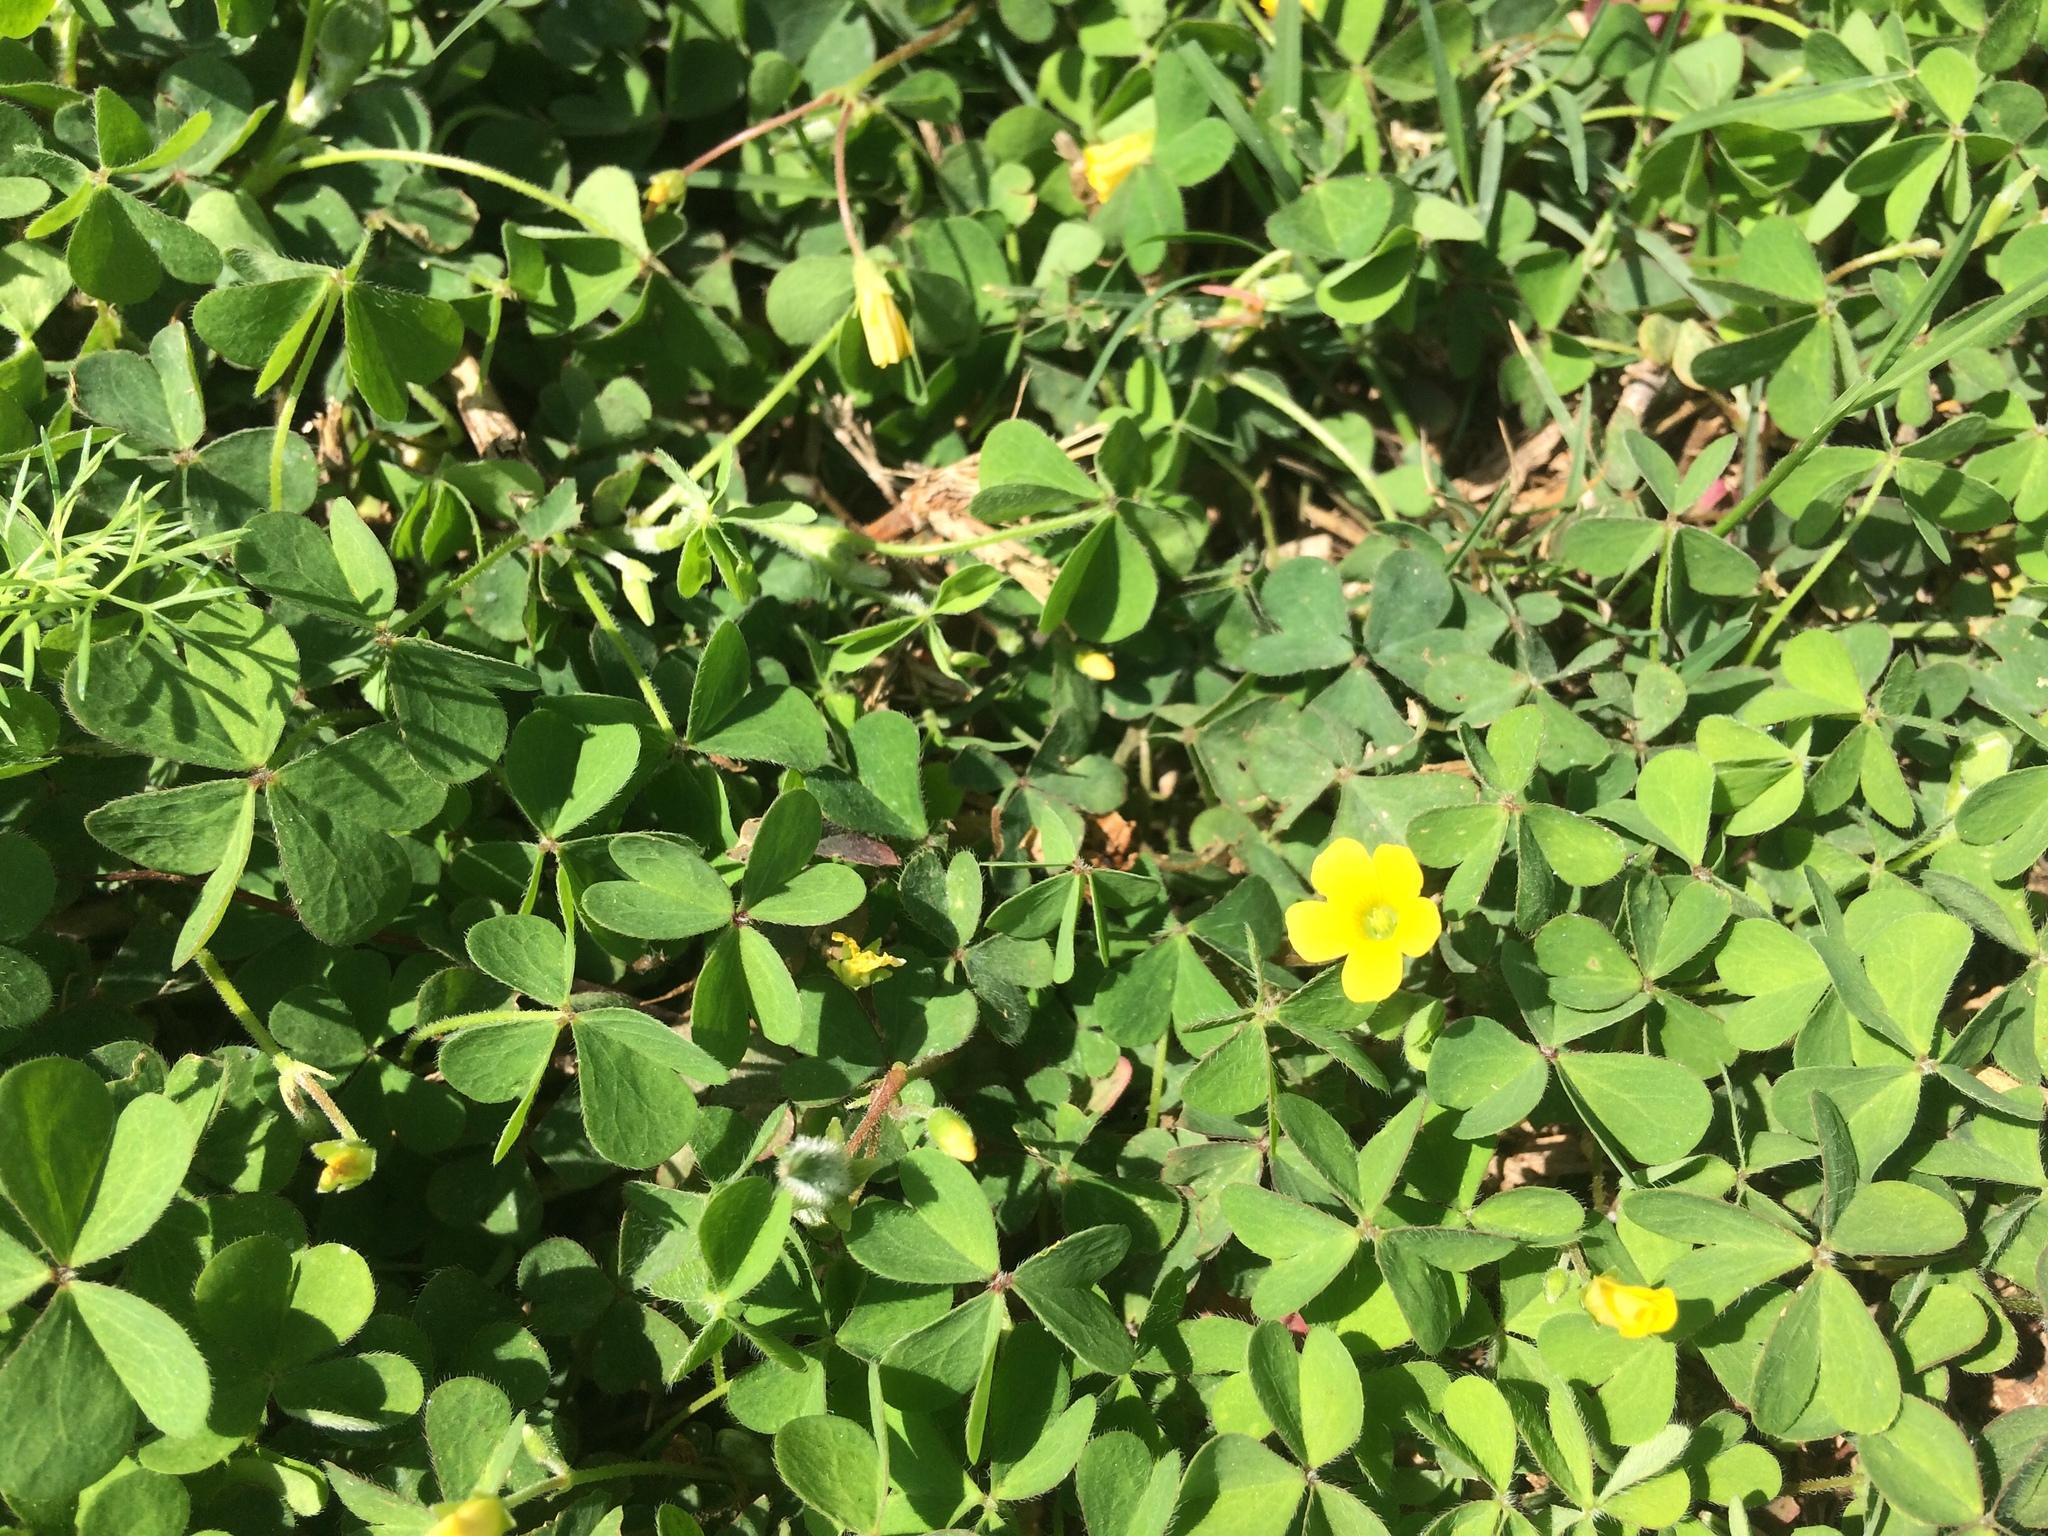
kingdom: Plantae
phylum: Tracheophyta
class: Magnoliopsida
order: Oxalidales
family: Oxalidaceae
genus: Oxalis
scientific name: Oxalis corniculata
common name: Procumbent yellow-sorrel
